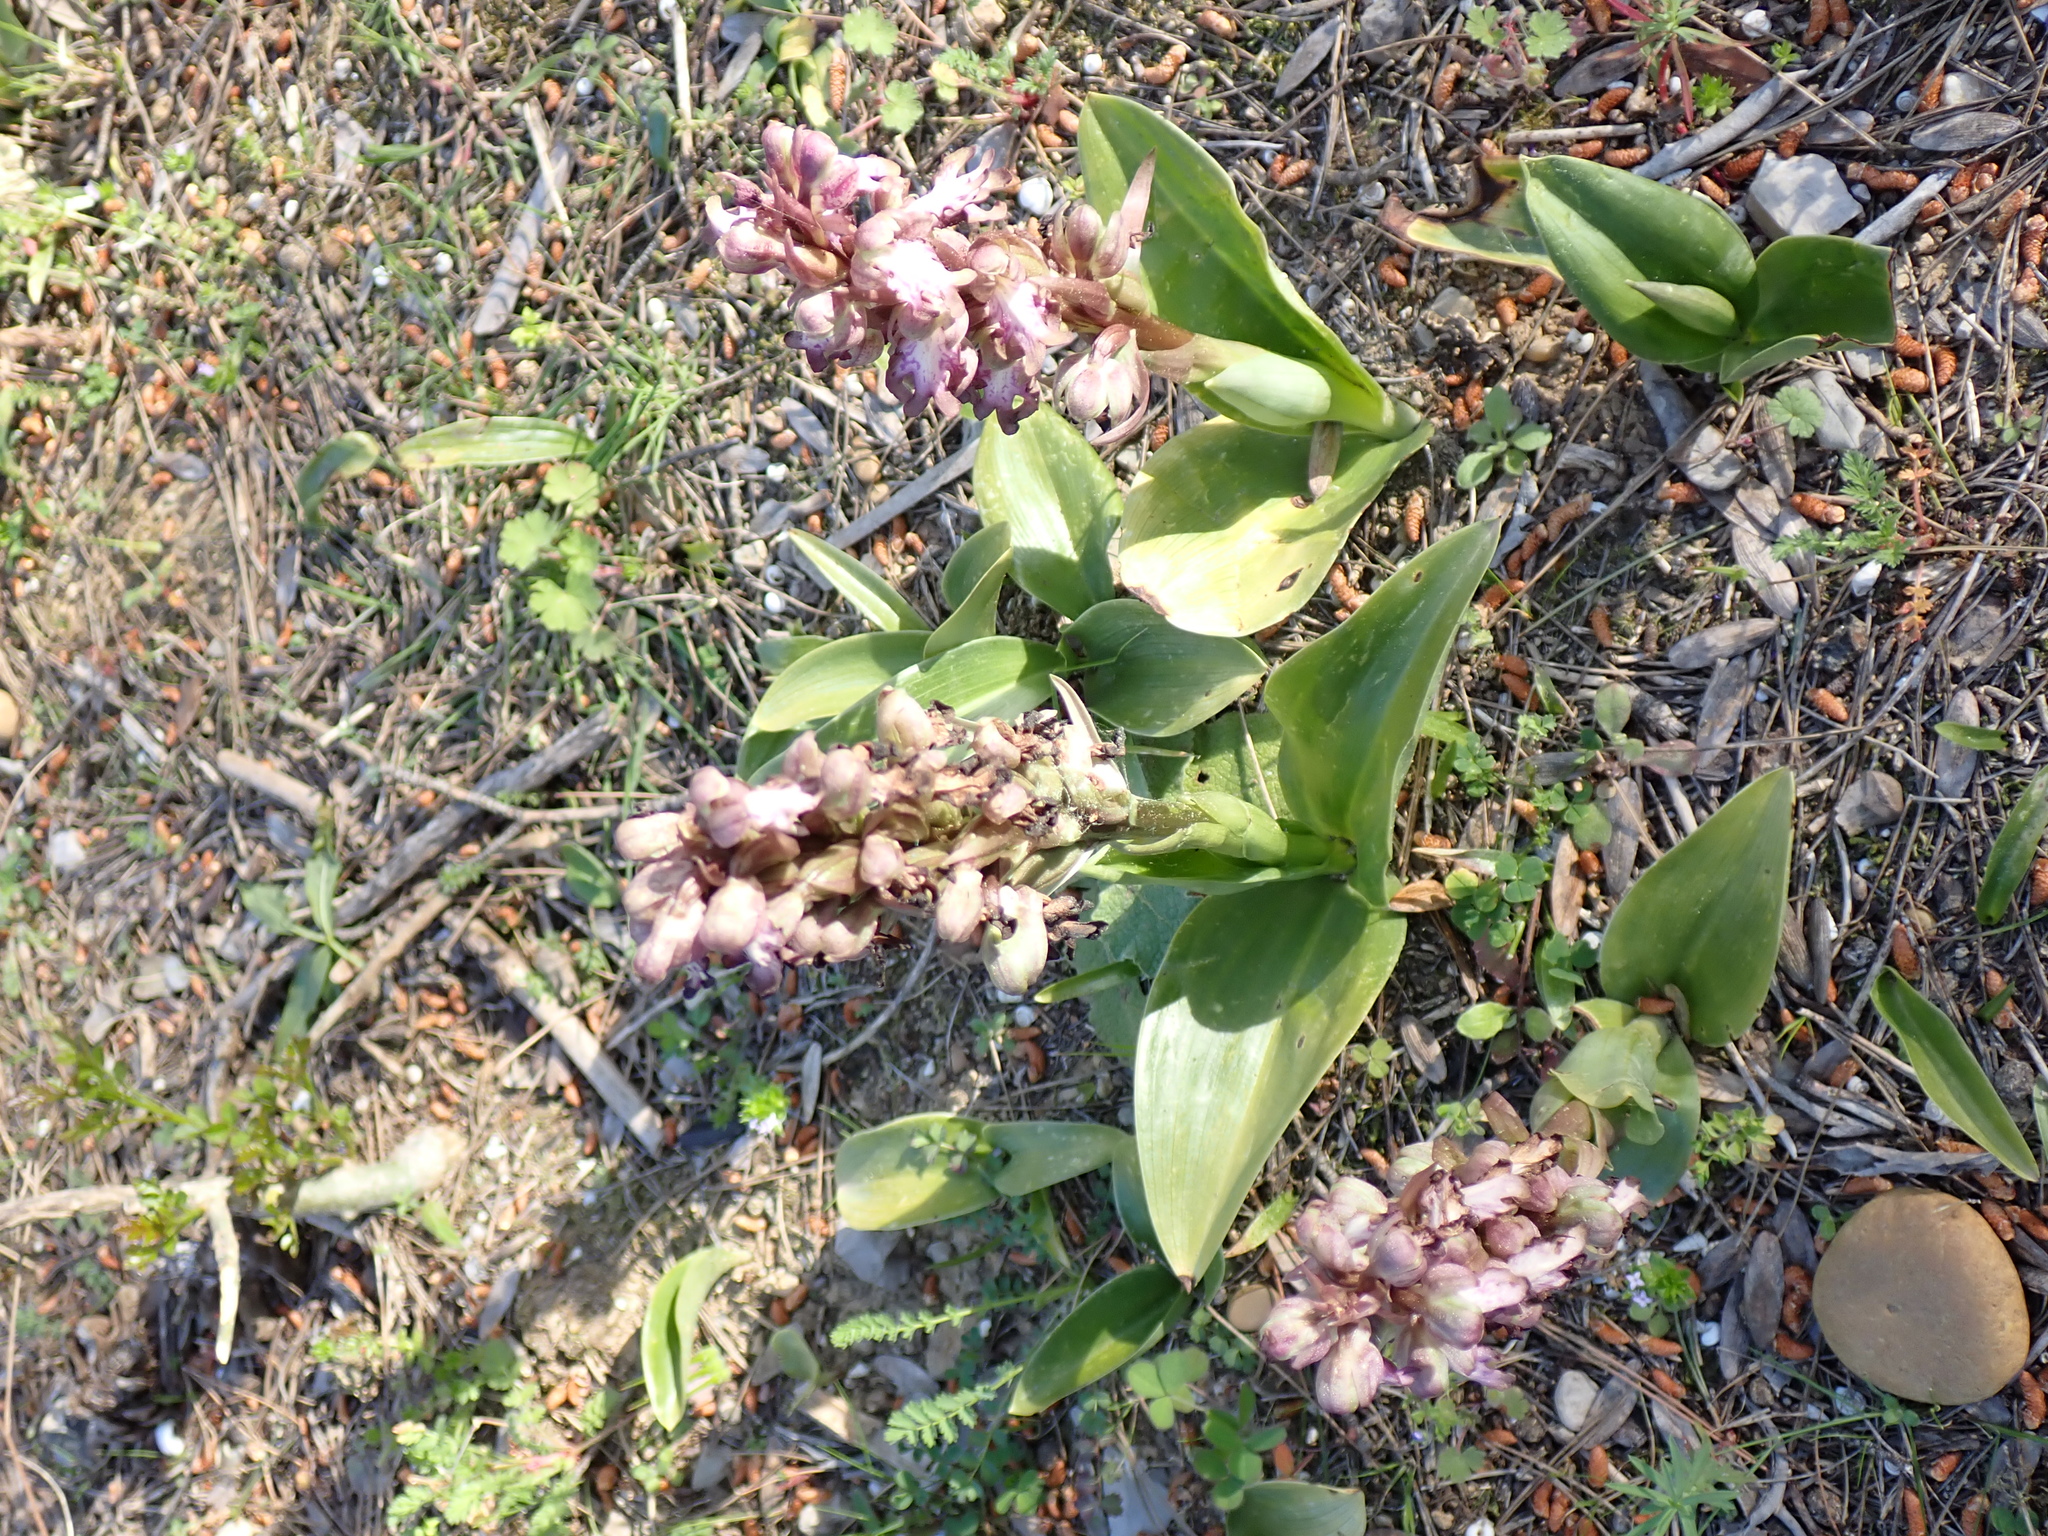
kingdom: Plantae
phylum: Tracheophyta
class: Liliopsida
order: Asparagales
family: Orchidaceae
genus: Himantoglossum
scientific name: Himantoglossum robertianum
